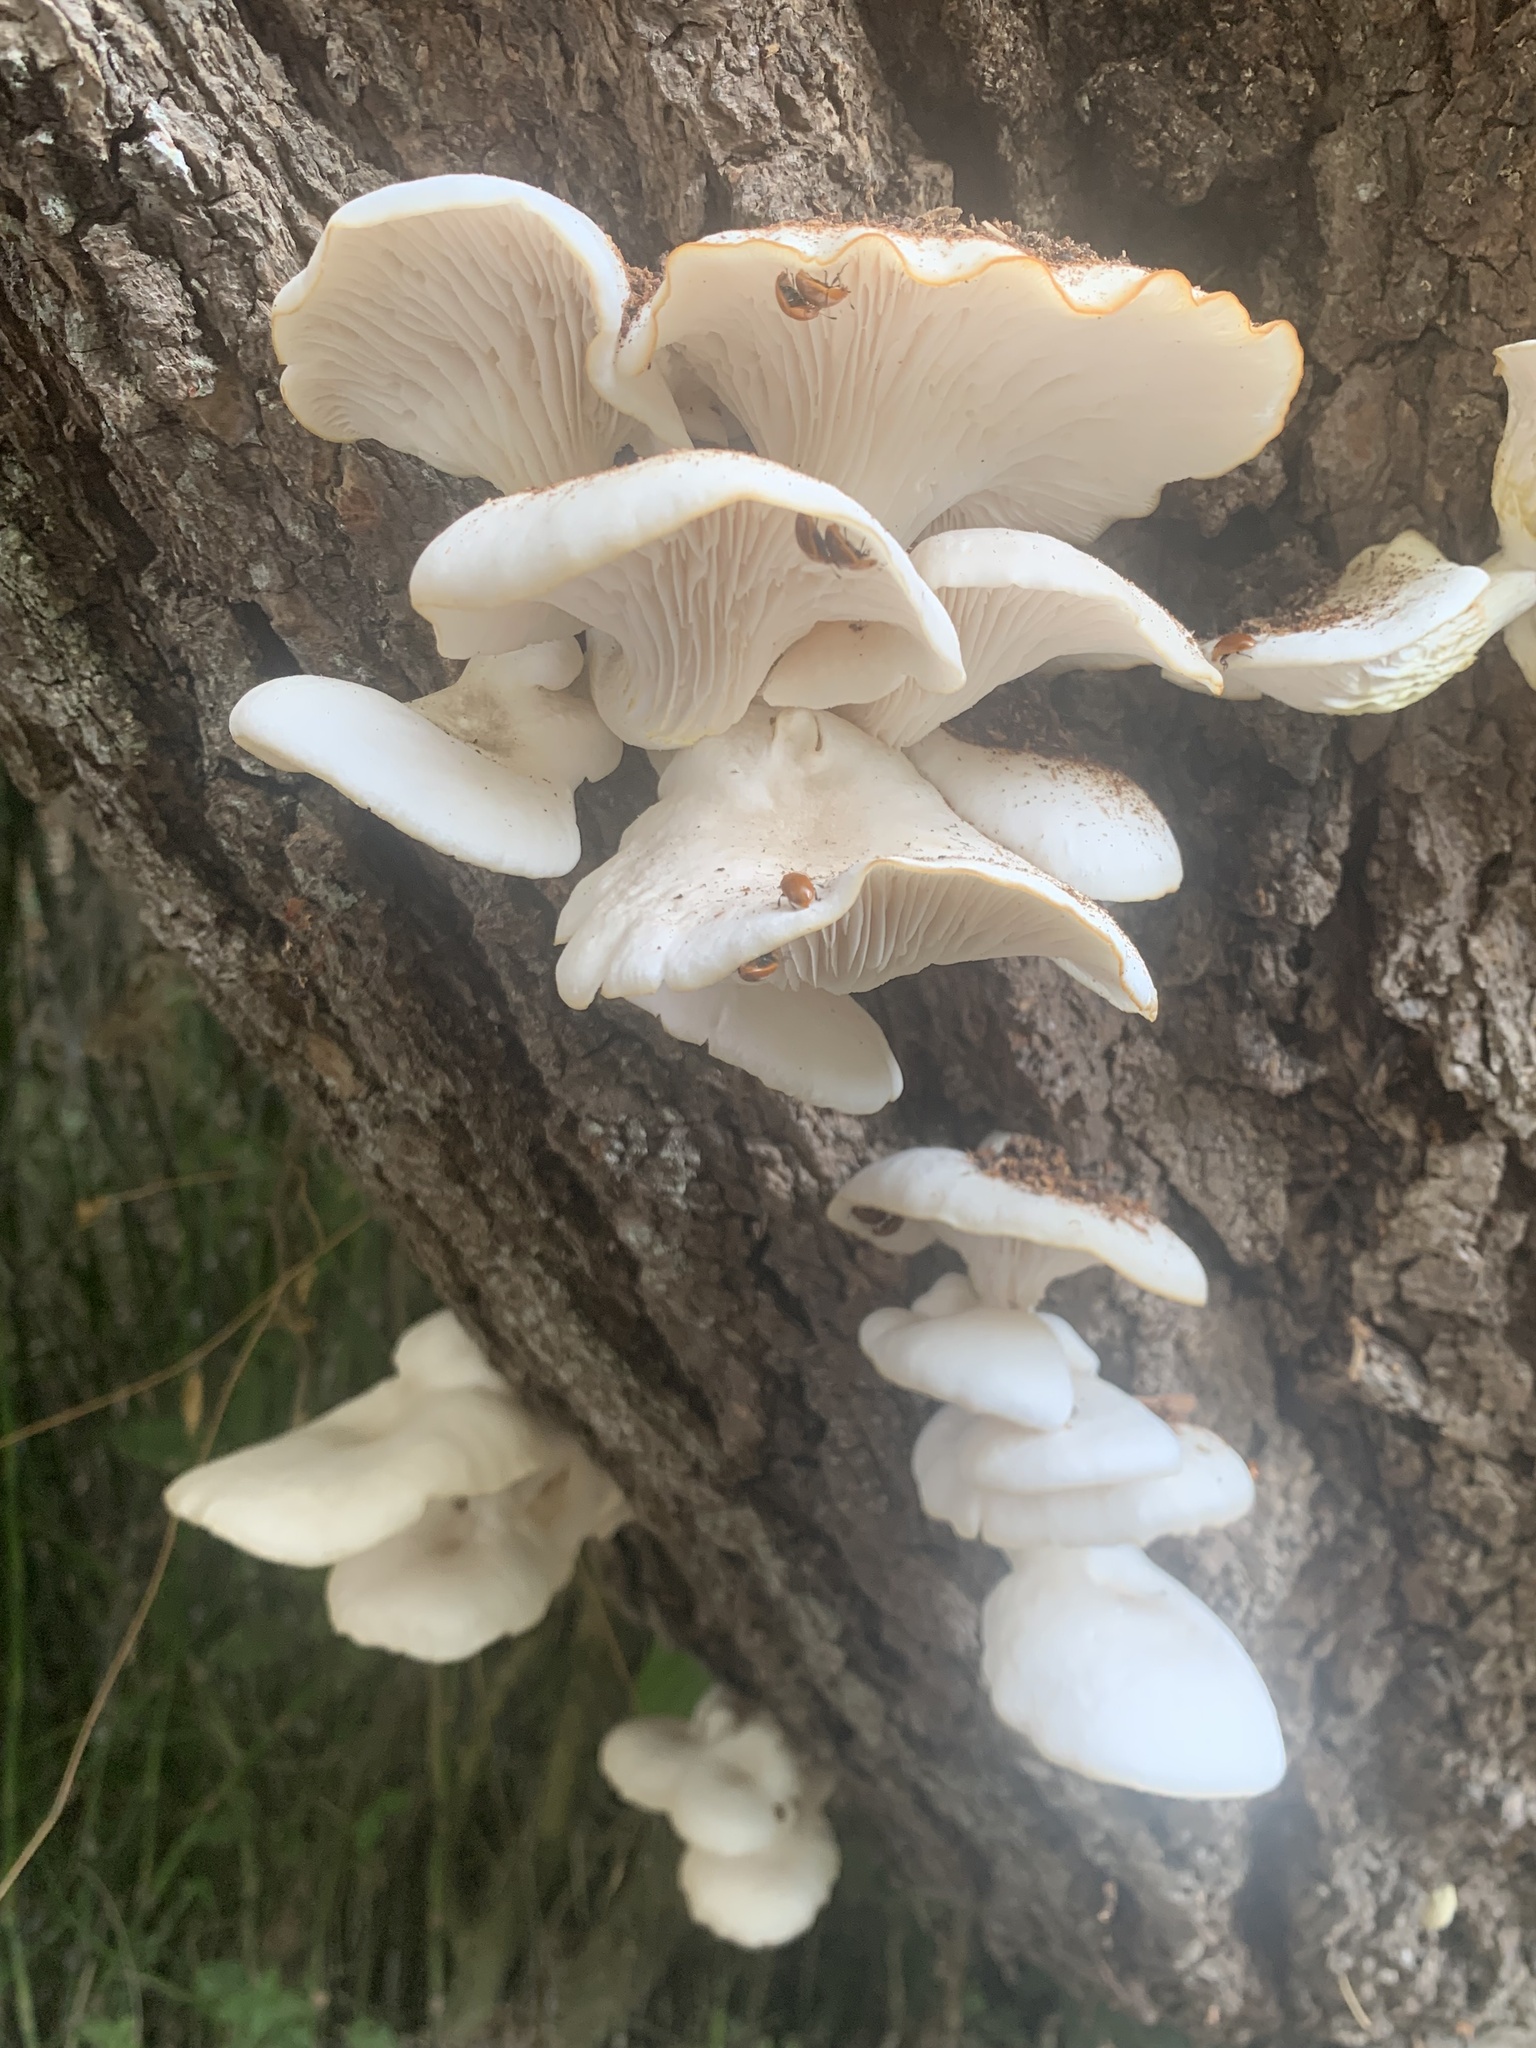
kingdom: Fungi
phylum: Basidiomycota
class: Agaricomycetes
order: Agaricales
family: Pleurotaceae
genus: Pleurotus
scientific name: Pleurotus albidus
